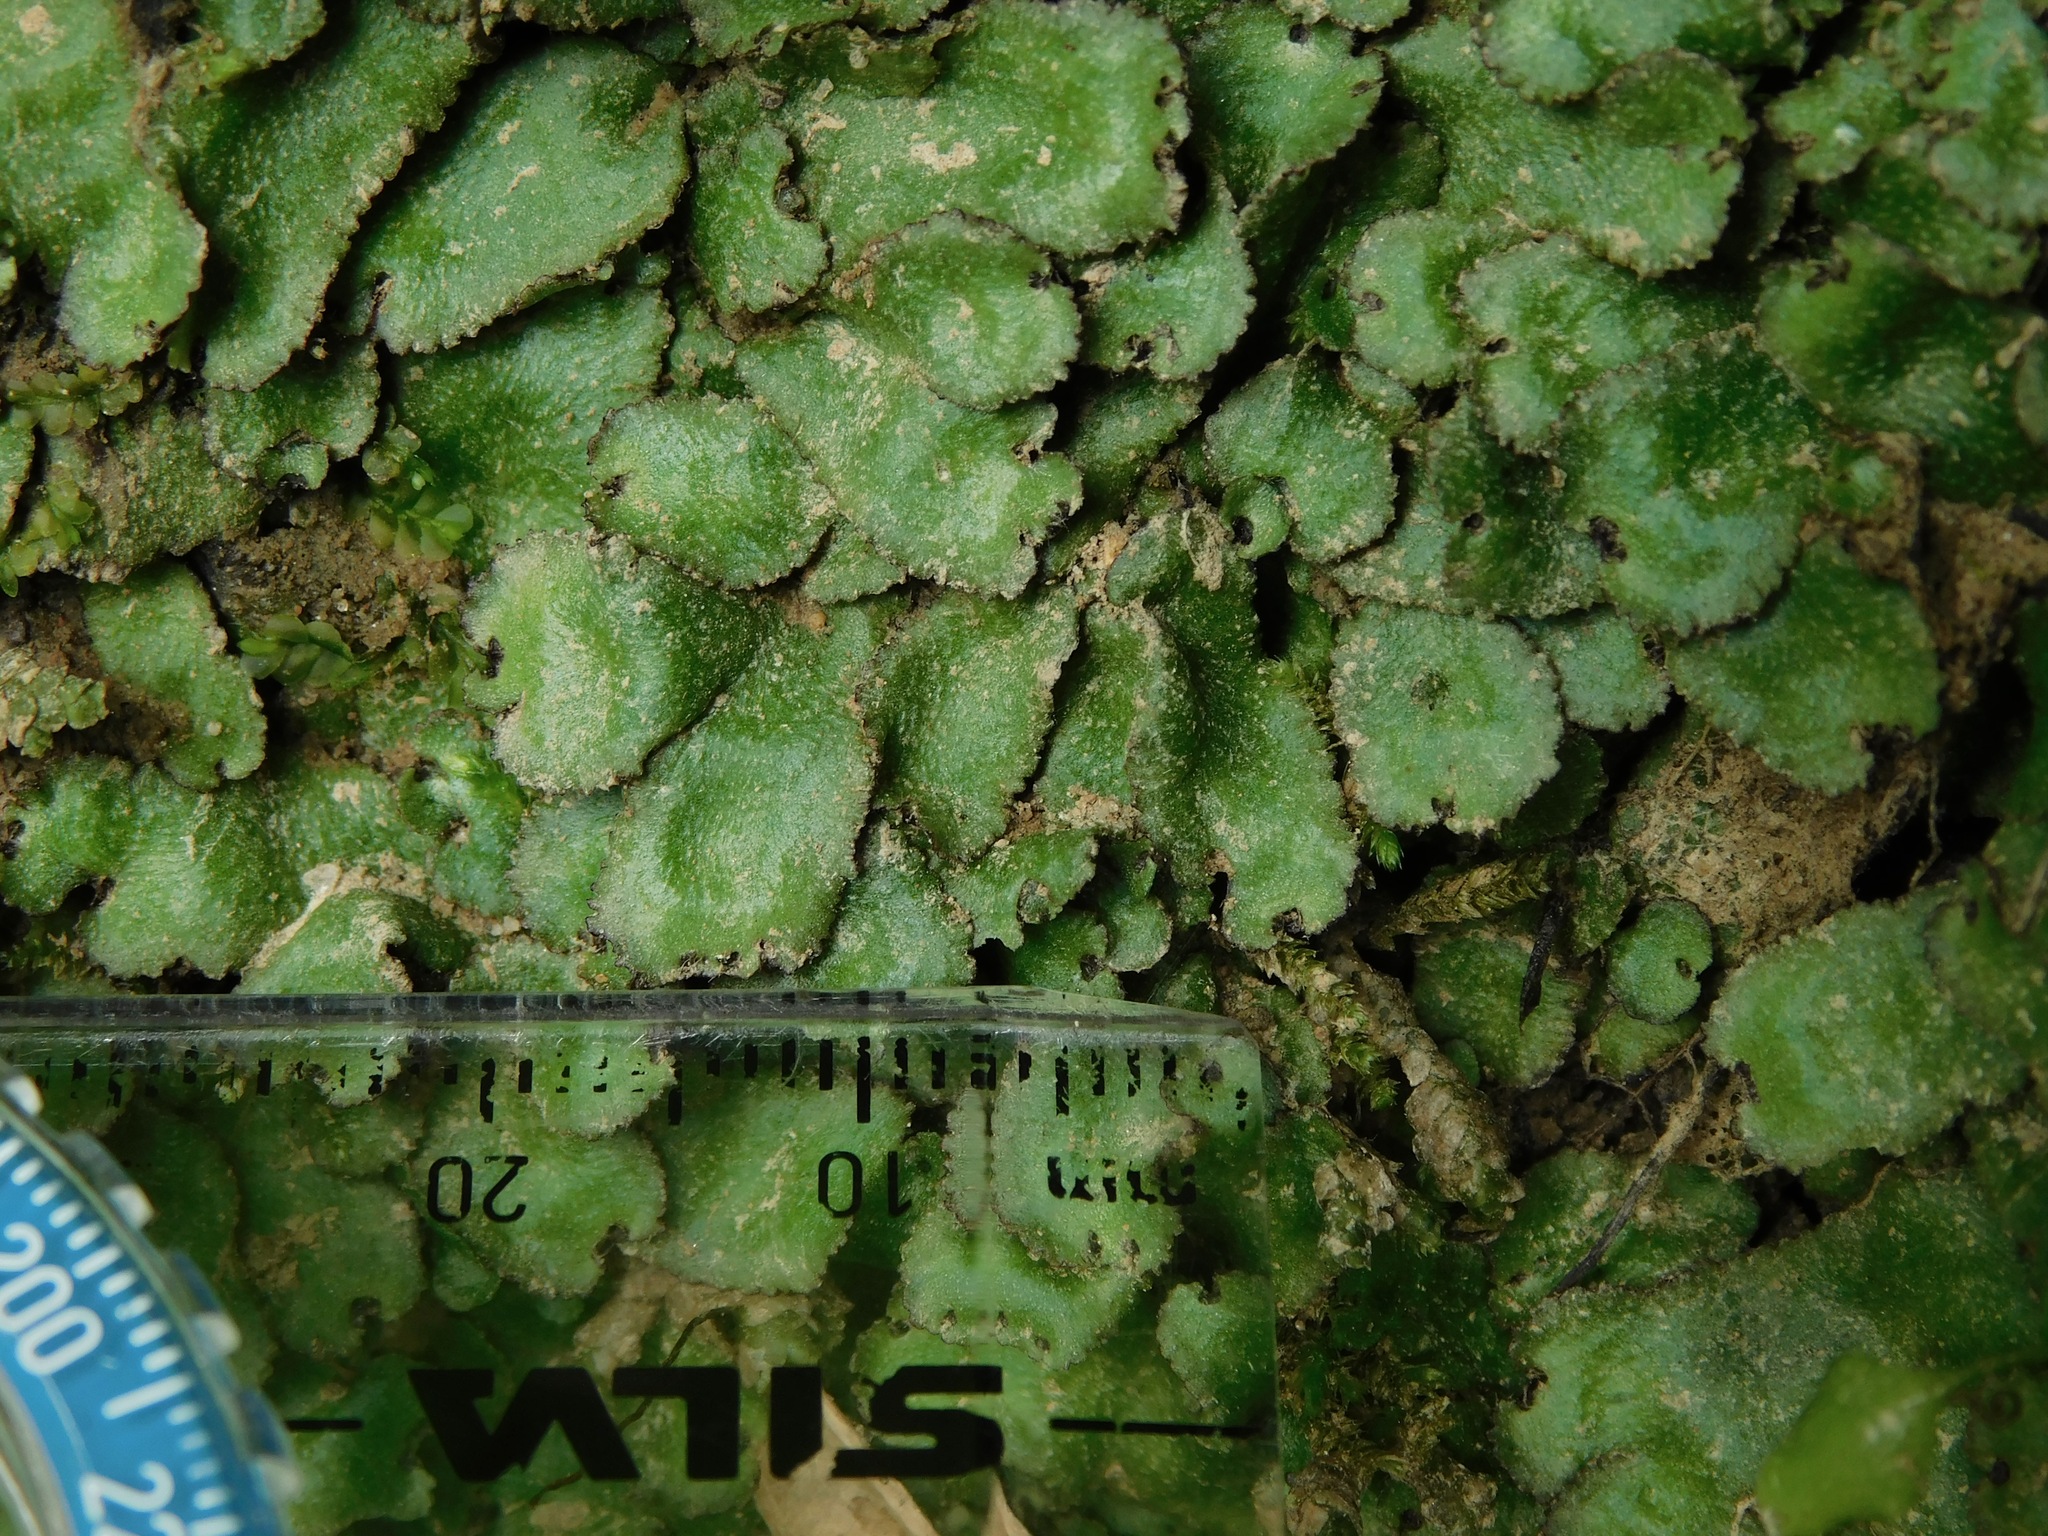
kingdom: Plantae
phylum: Marchantiophyta
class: Marchantiopsida
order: Marchantiales
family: Aytoniaceae
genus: Reboulia
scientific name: Reboulia hemisphaerica
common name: Purple-margined liverwort
